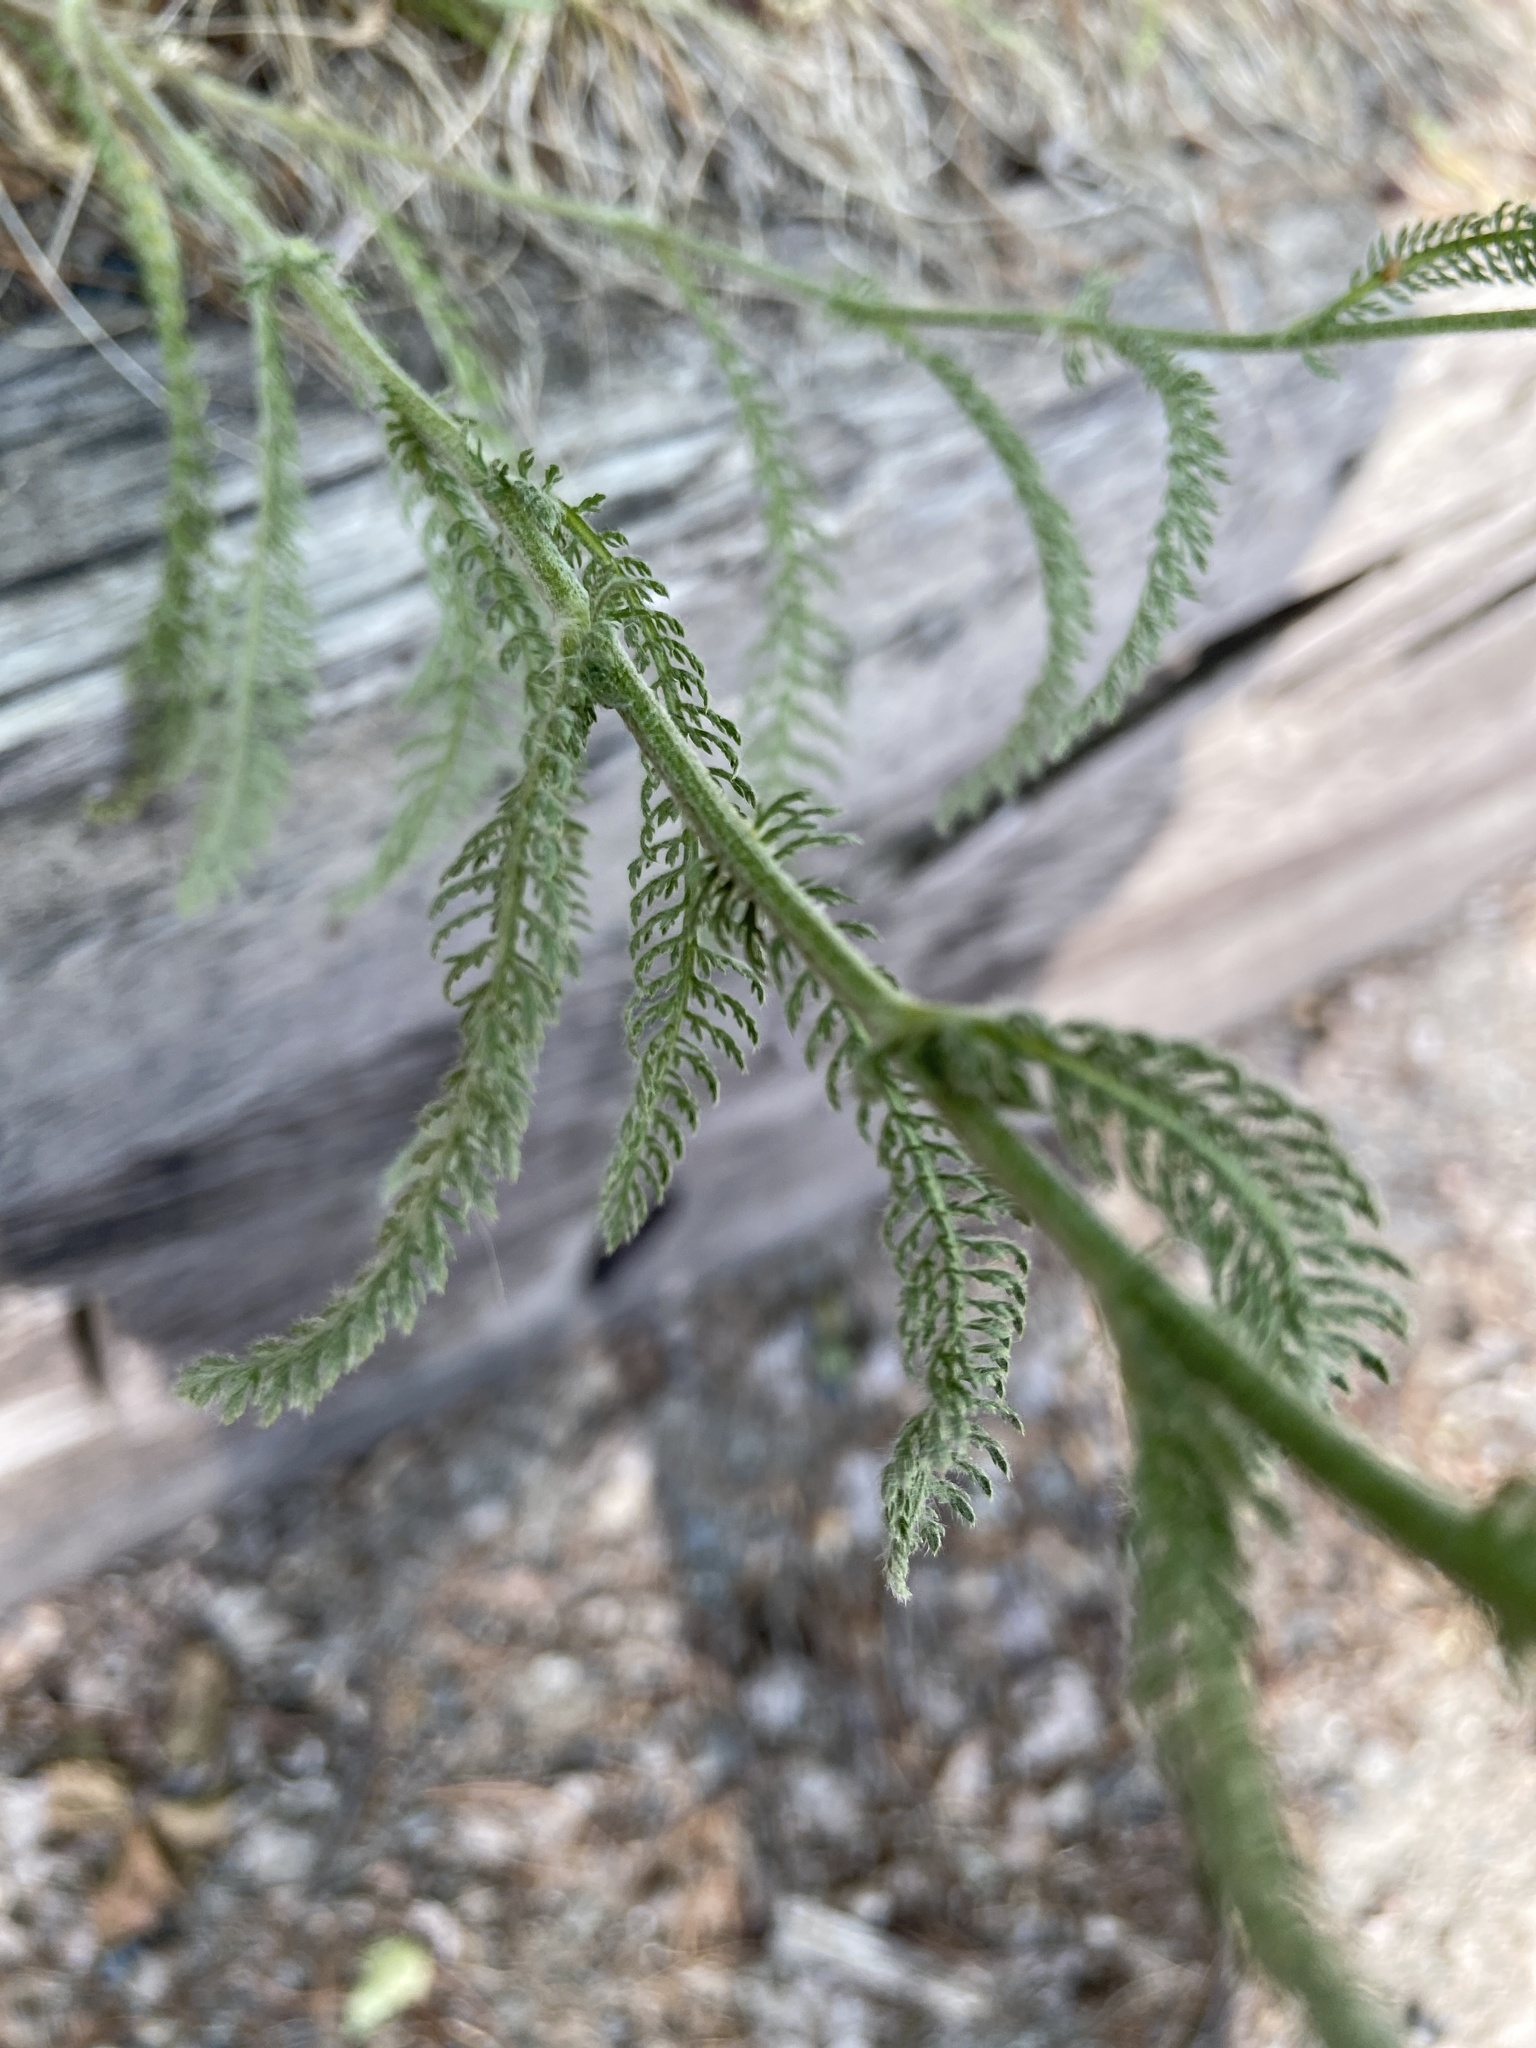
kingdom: Plantae
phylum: Tracheophyta
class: Magnoliopsida
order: Asterales
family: Asteraceae
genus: Achillea
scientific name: Achillea millefolium
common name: Yarrow
